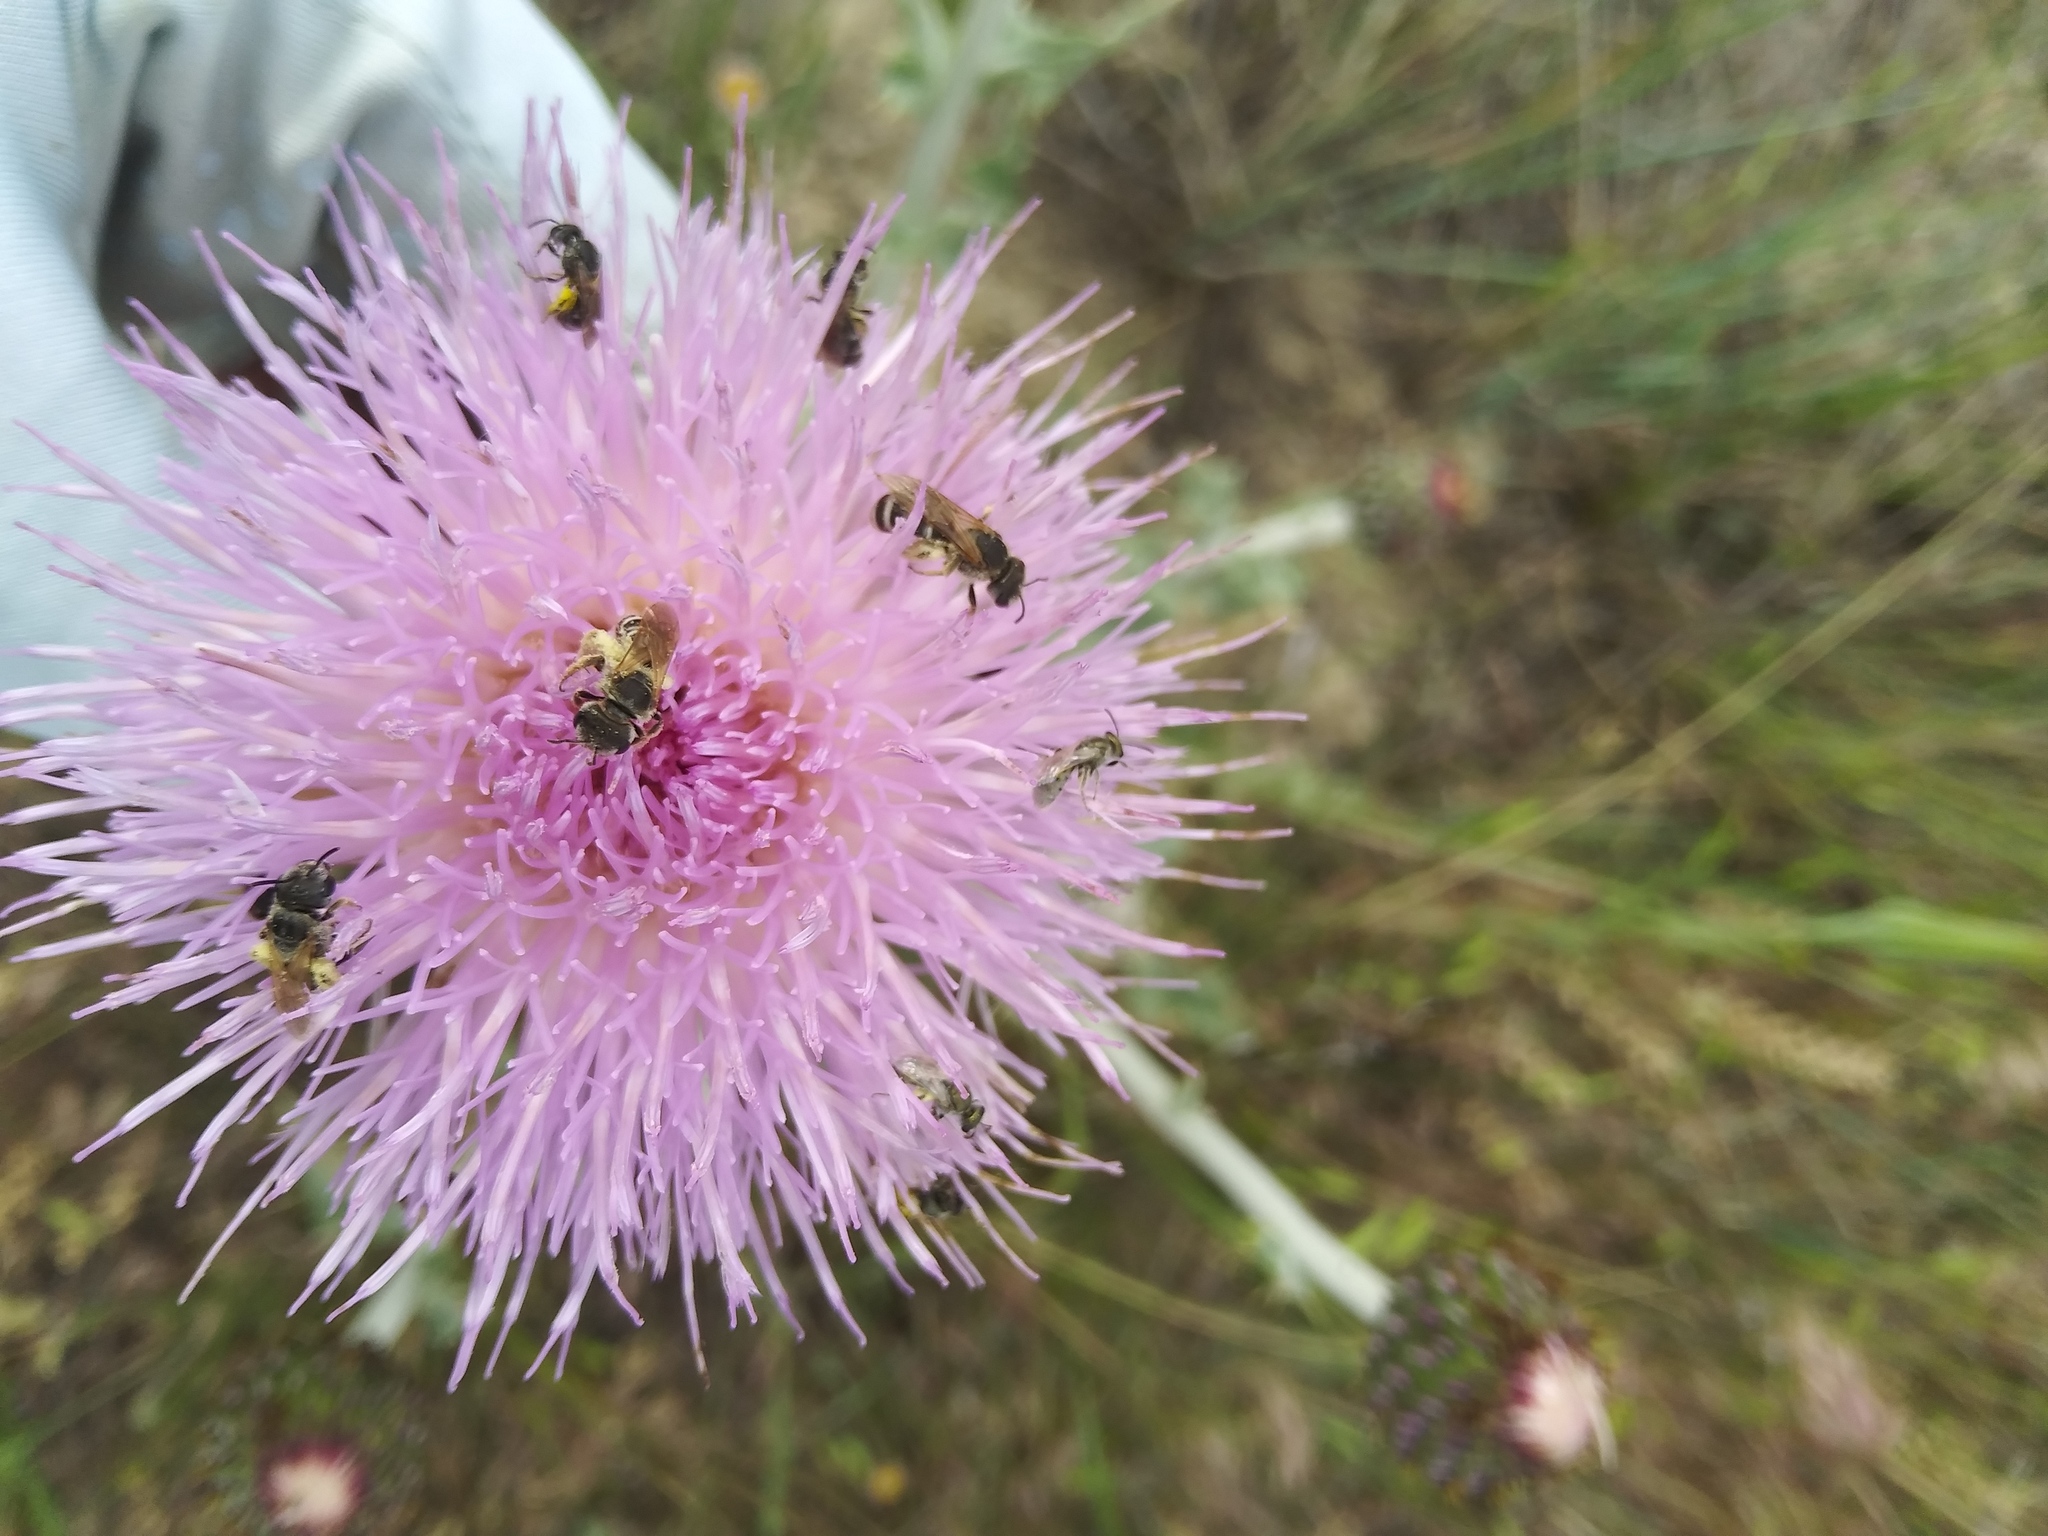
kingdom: Animalia
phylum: Arthropoda
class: Insecta
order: Hymenoptera
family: Halictidae
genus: Halictus
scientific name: Halictus ligatus
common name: Ligated furrow bee
